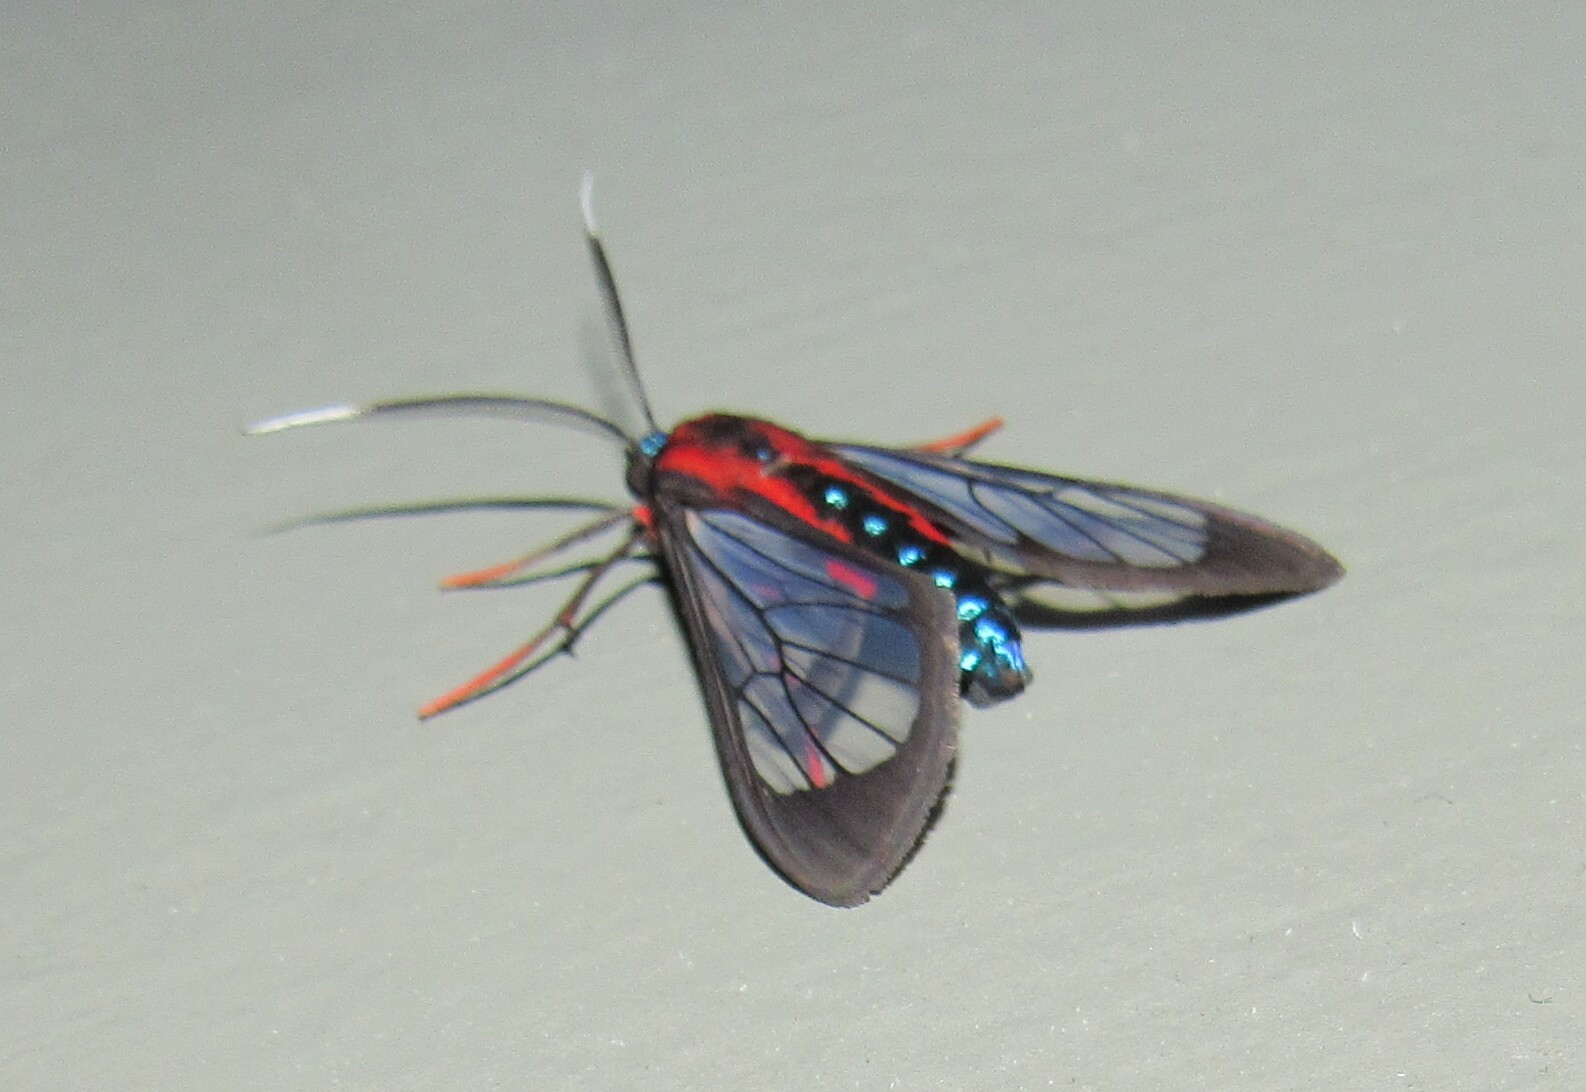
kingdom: Animalia
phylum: Arthropoda
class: Insecta
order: Lepidoptera
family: Erebidae
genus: Cosmosoma
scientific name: Cosmosoma auge
